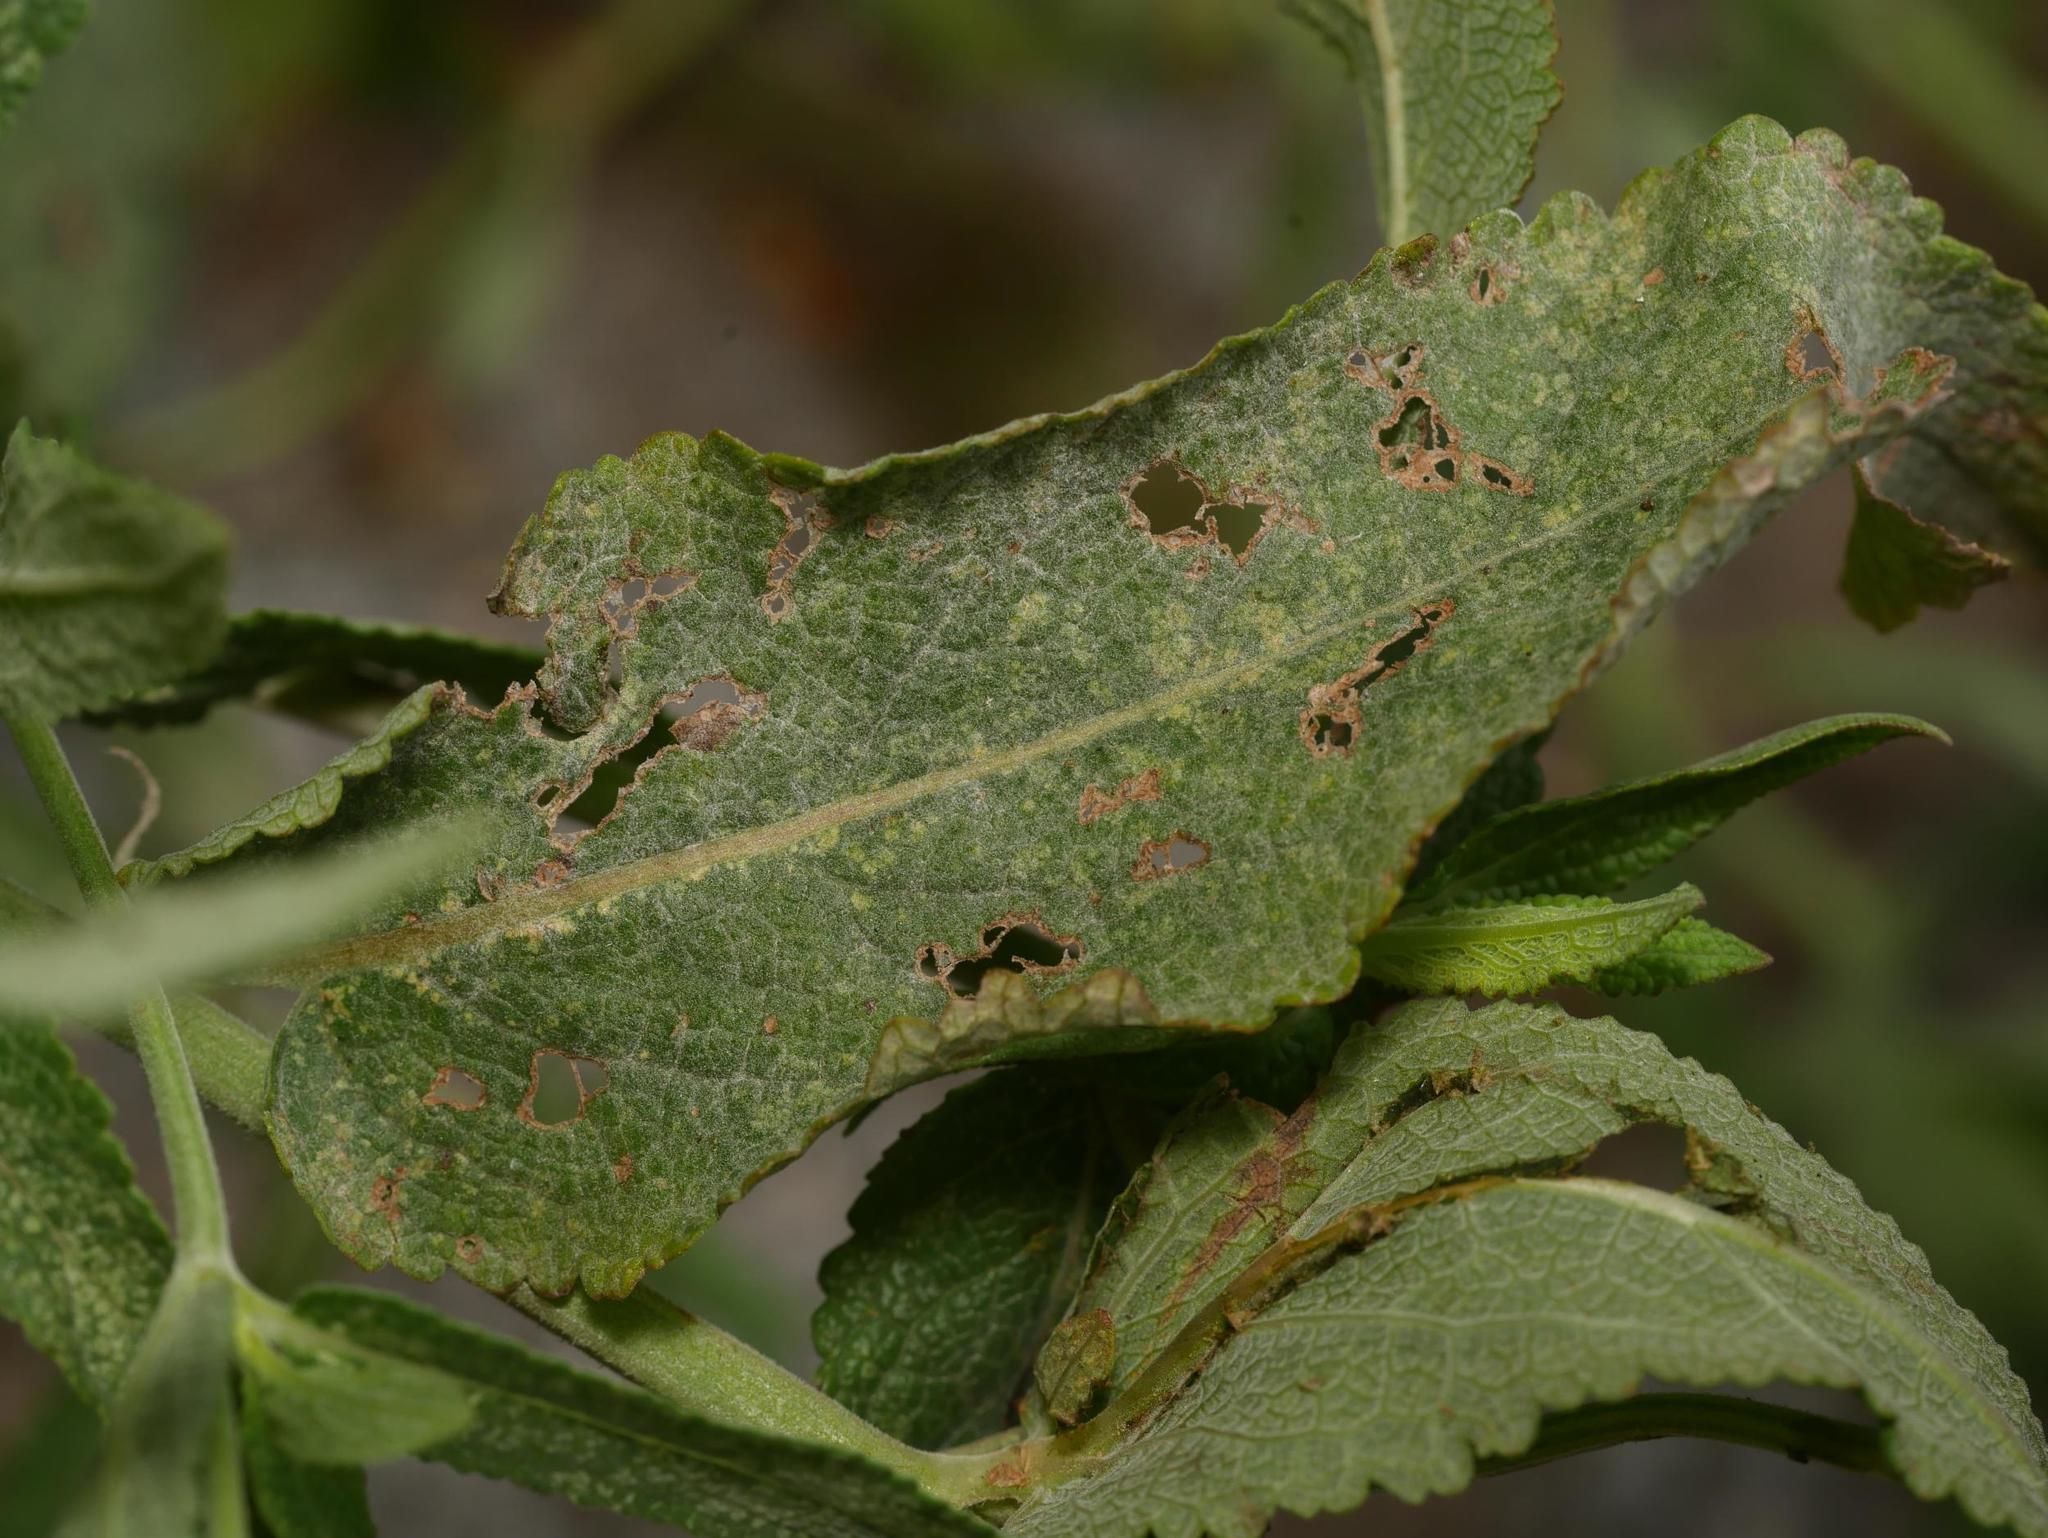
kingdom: Fungi
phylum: Ascomycota
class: Leotiomycetes
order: Helotiales
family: Erysiphaceae
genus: Golovinomyces
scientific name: Golovinomyces salviae
